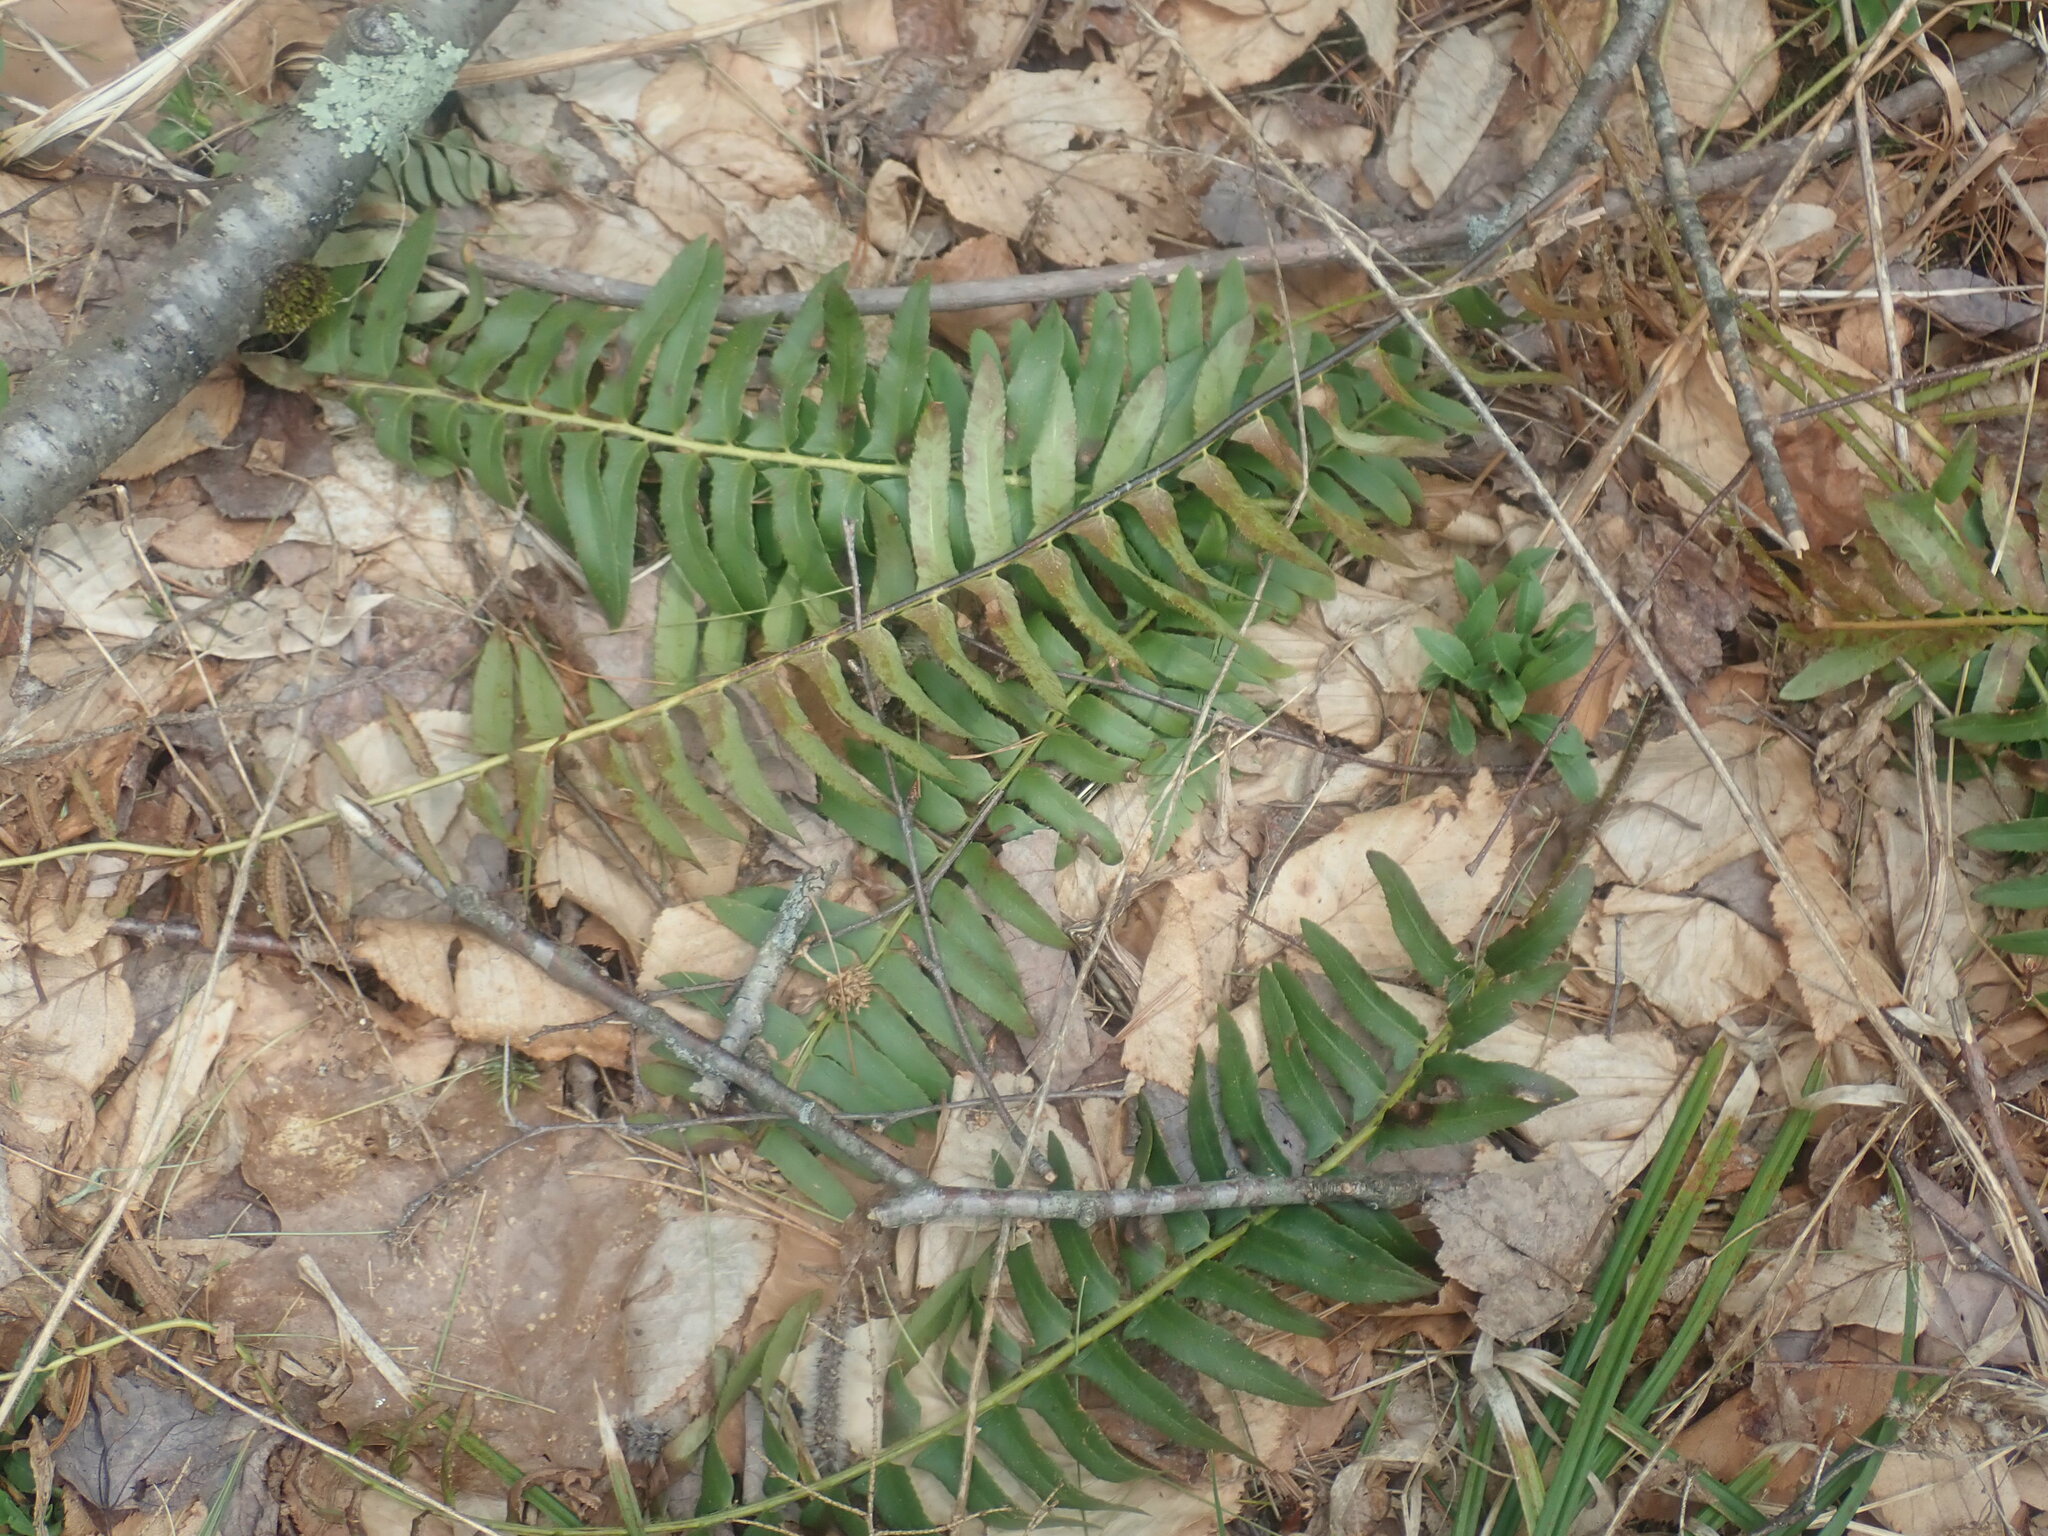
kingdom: Plantae
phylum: Tracheophyta
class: Polypodiopsida
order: Polypodiales
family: Dryopteridaceae
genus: Polystichum
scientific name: Polystichum acrostichoides
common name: Christmas fern
